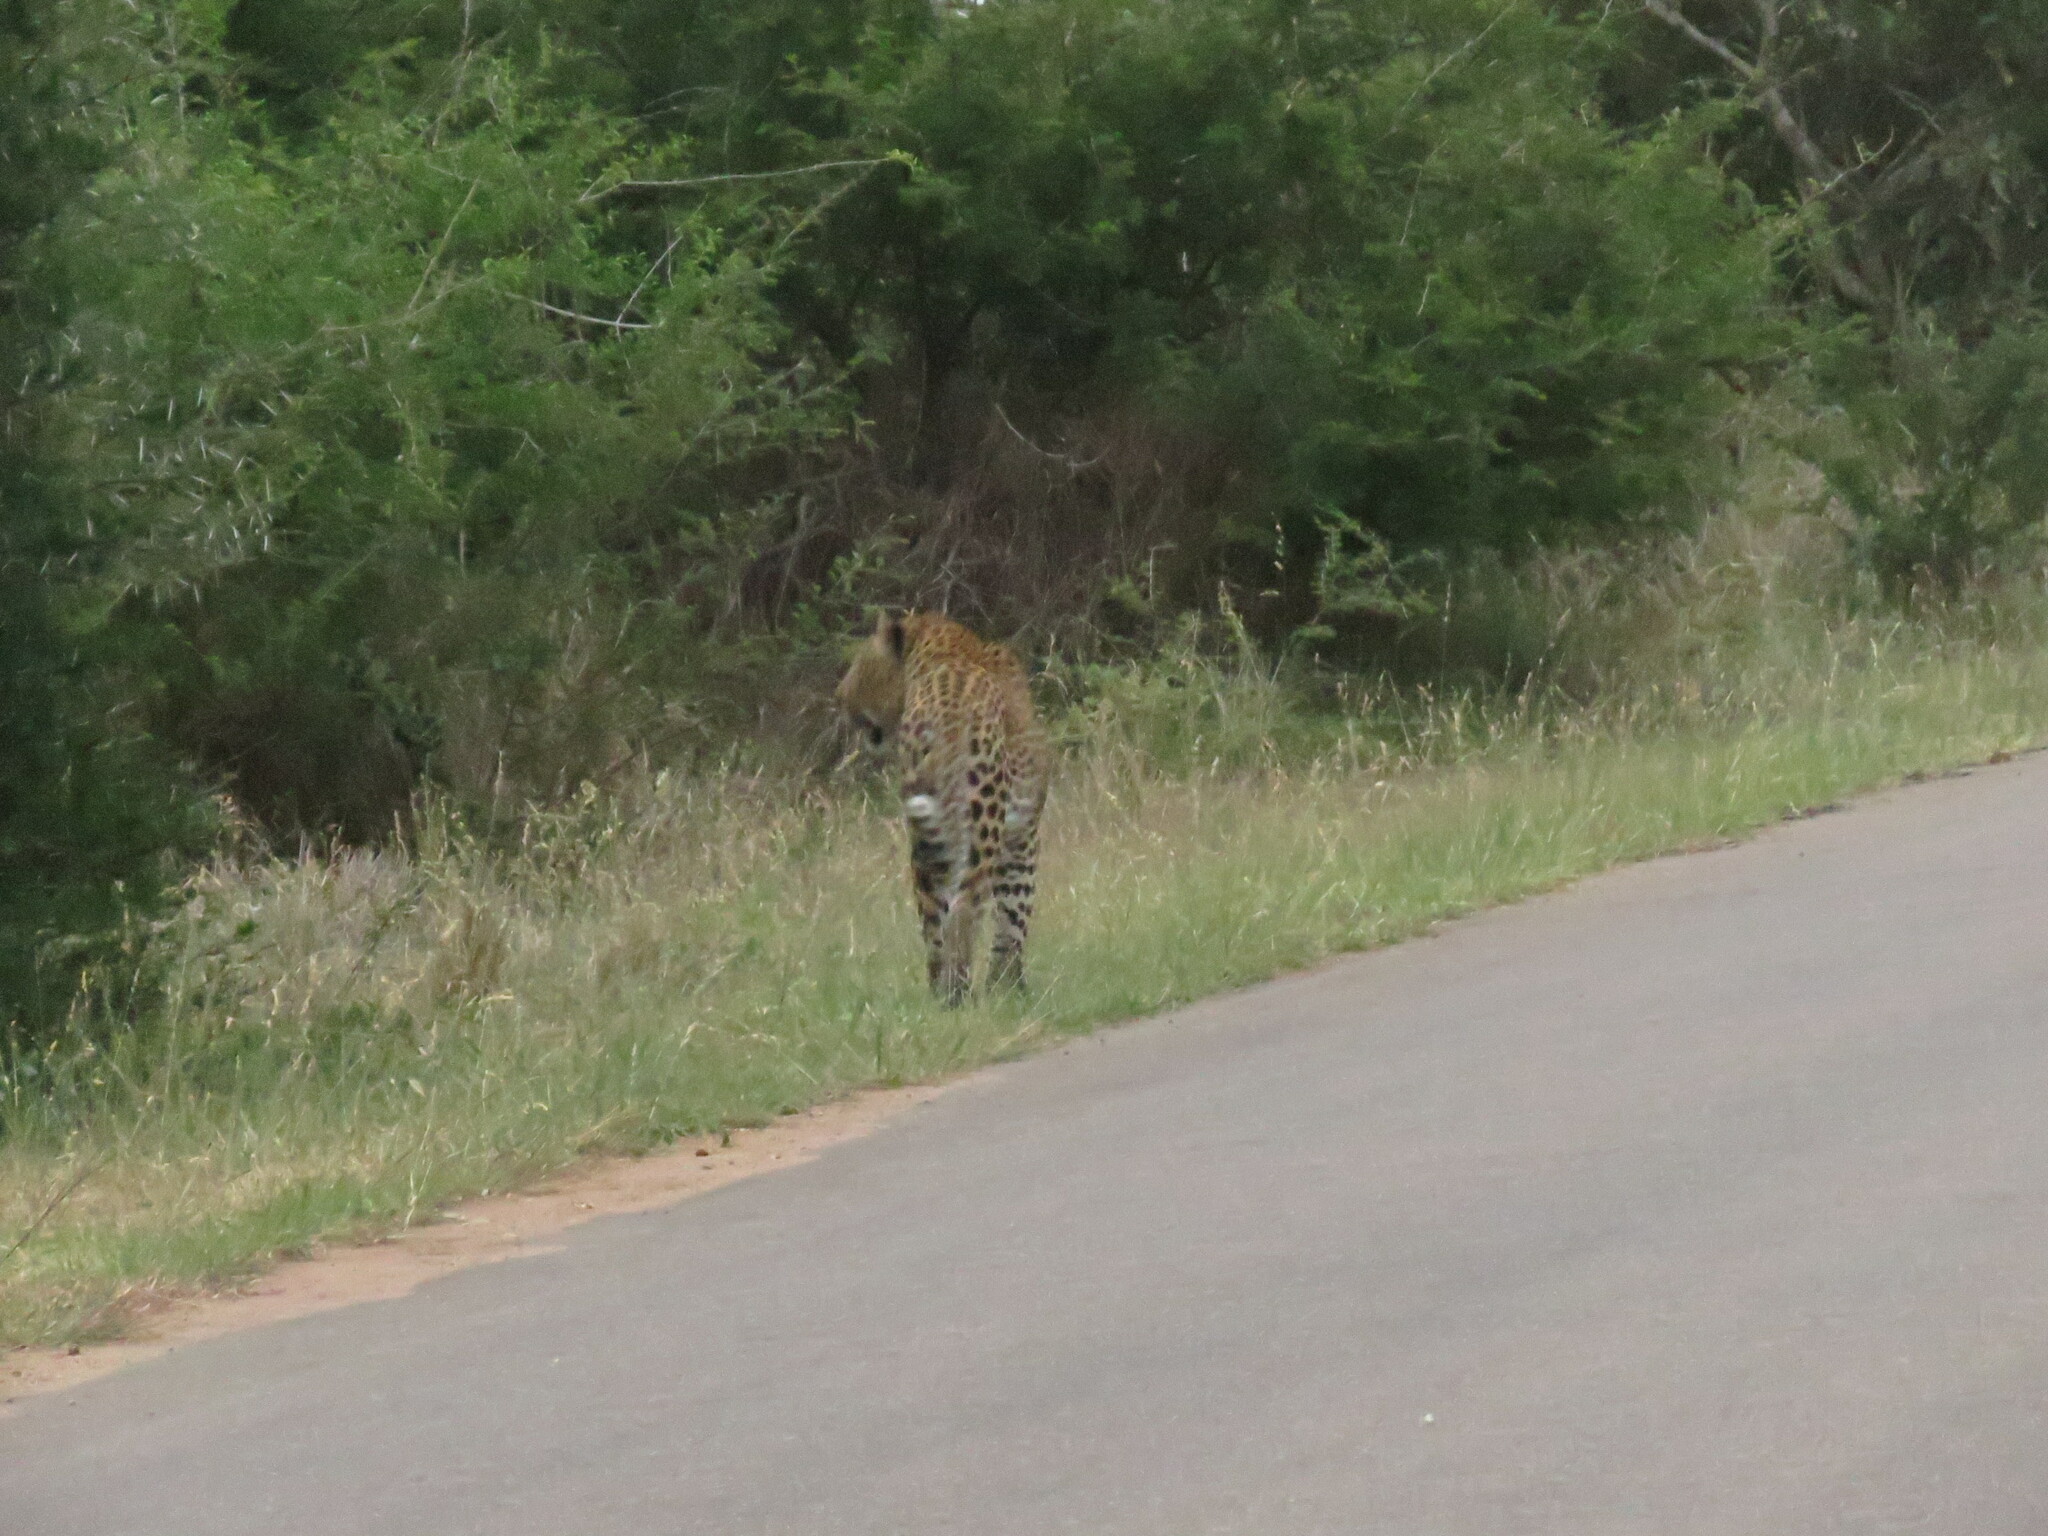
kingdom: Animalia
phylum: Chordata
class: Mammalia
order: Carnivora
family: Felidae
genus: Panthera
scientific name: Panthera pardus
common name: Leopard
